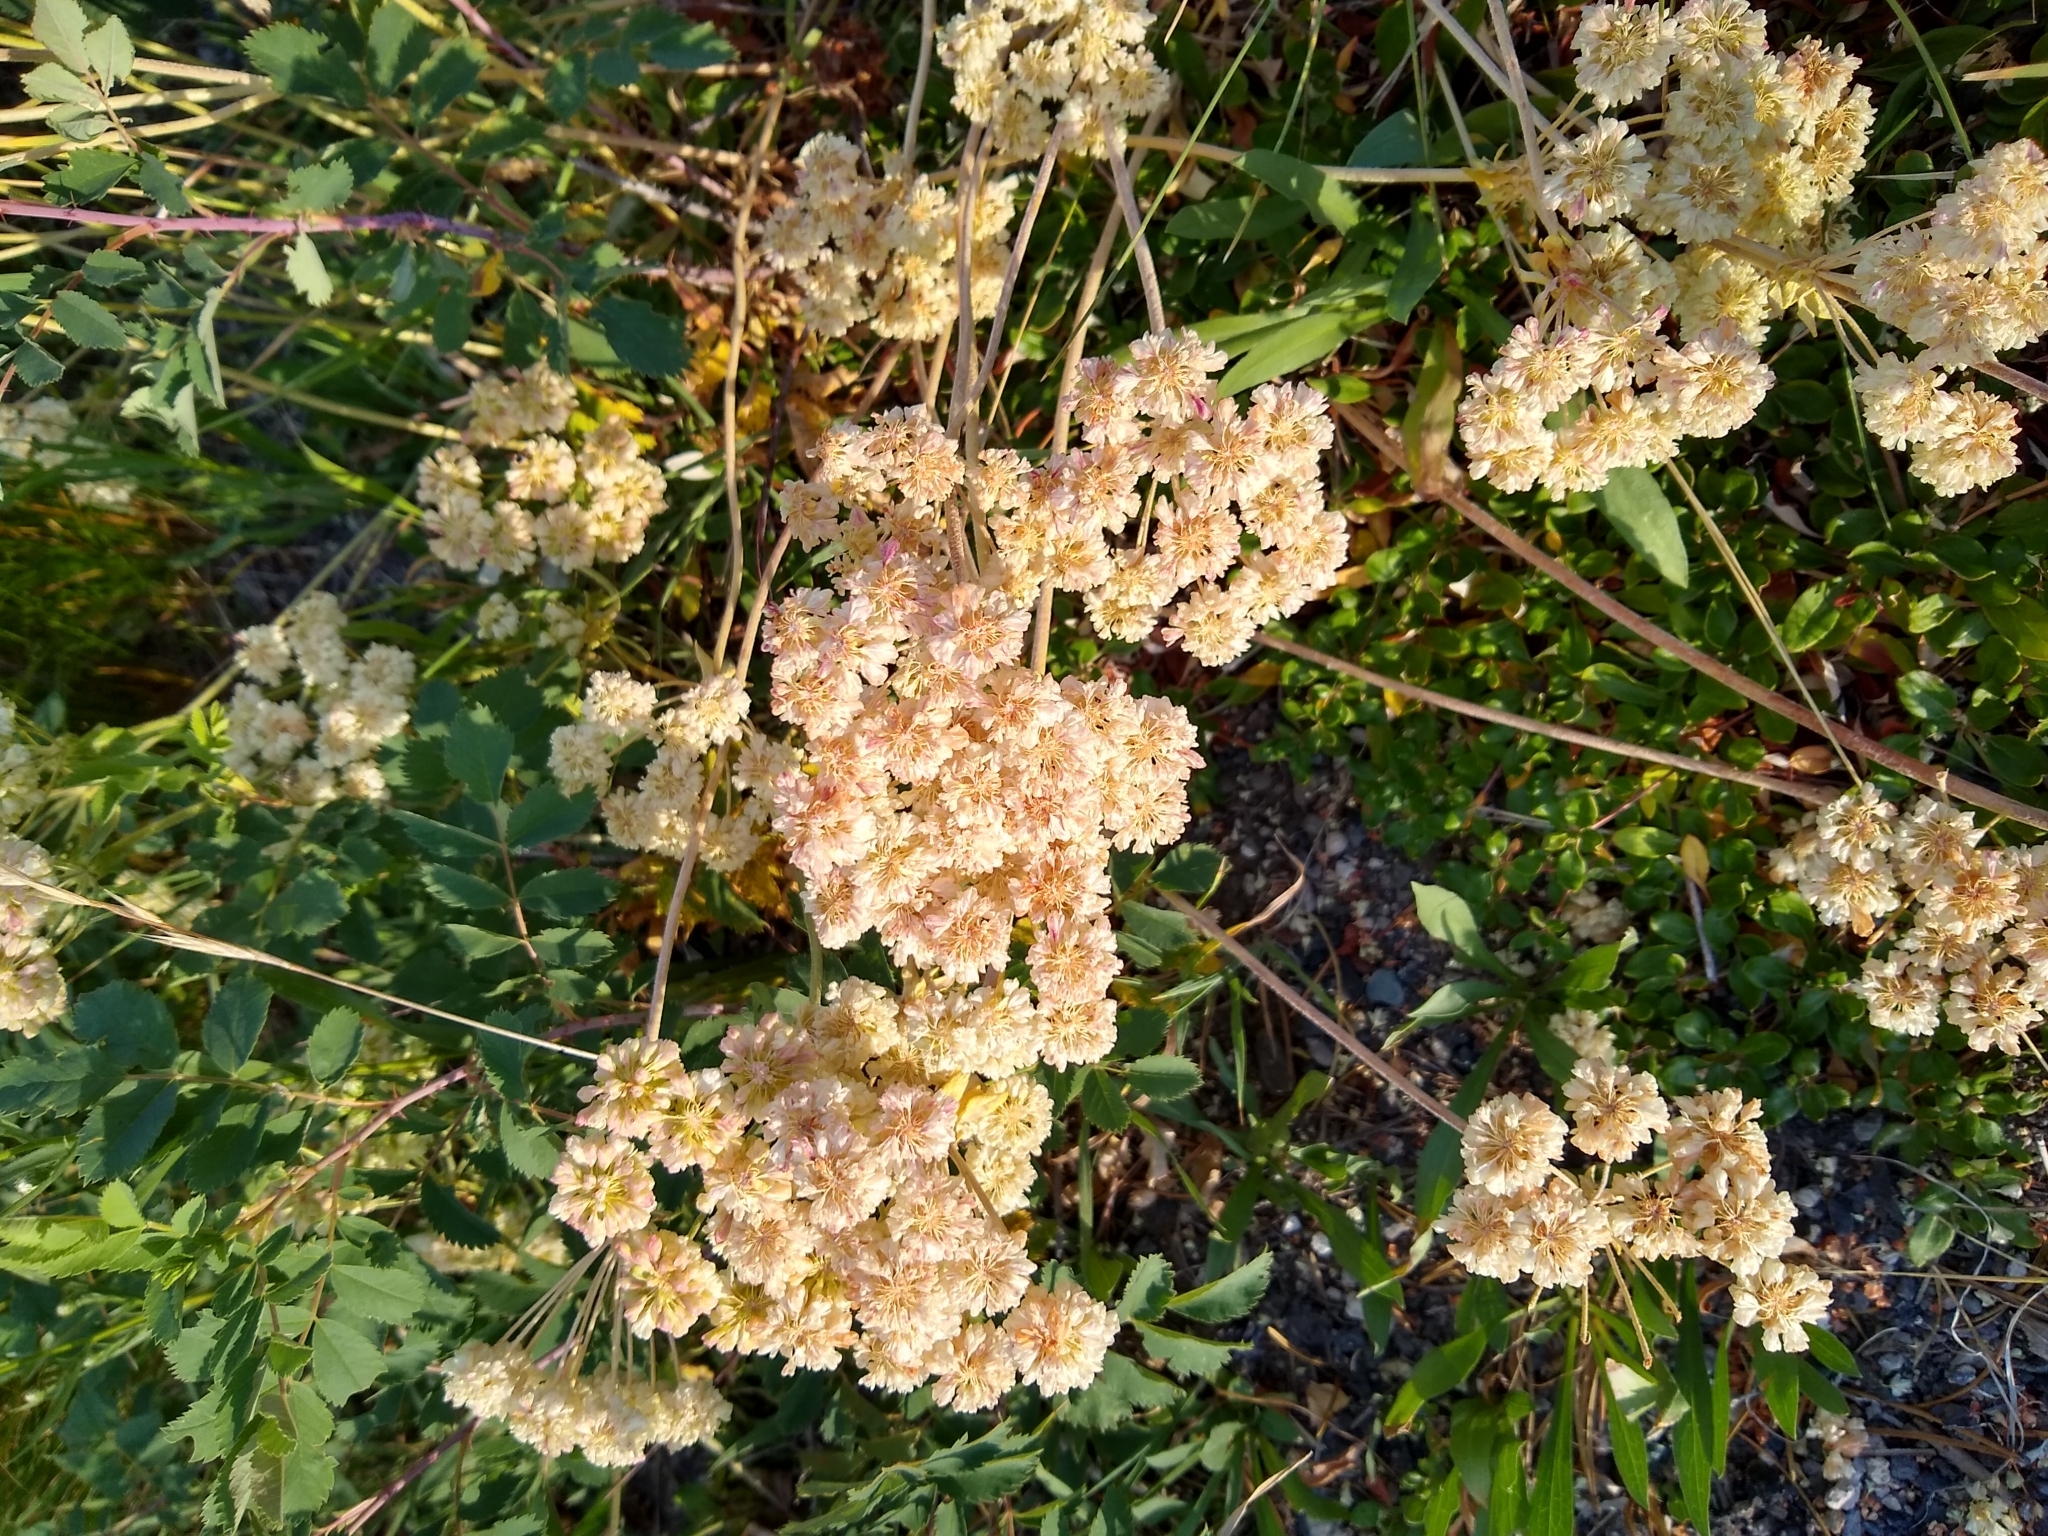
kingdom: Plantae
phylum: Tracheophyta
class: Magnoliopsida
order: Caryophyllales
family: Polygonaceae
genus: Eriogonum
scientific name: Eriogonum umbellatum
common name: Sulfur-buckwheat
